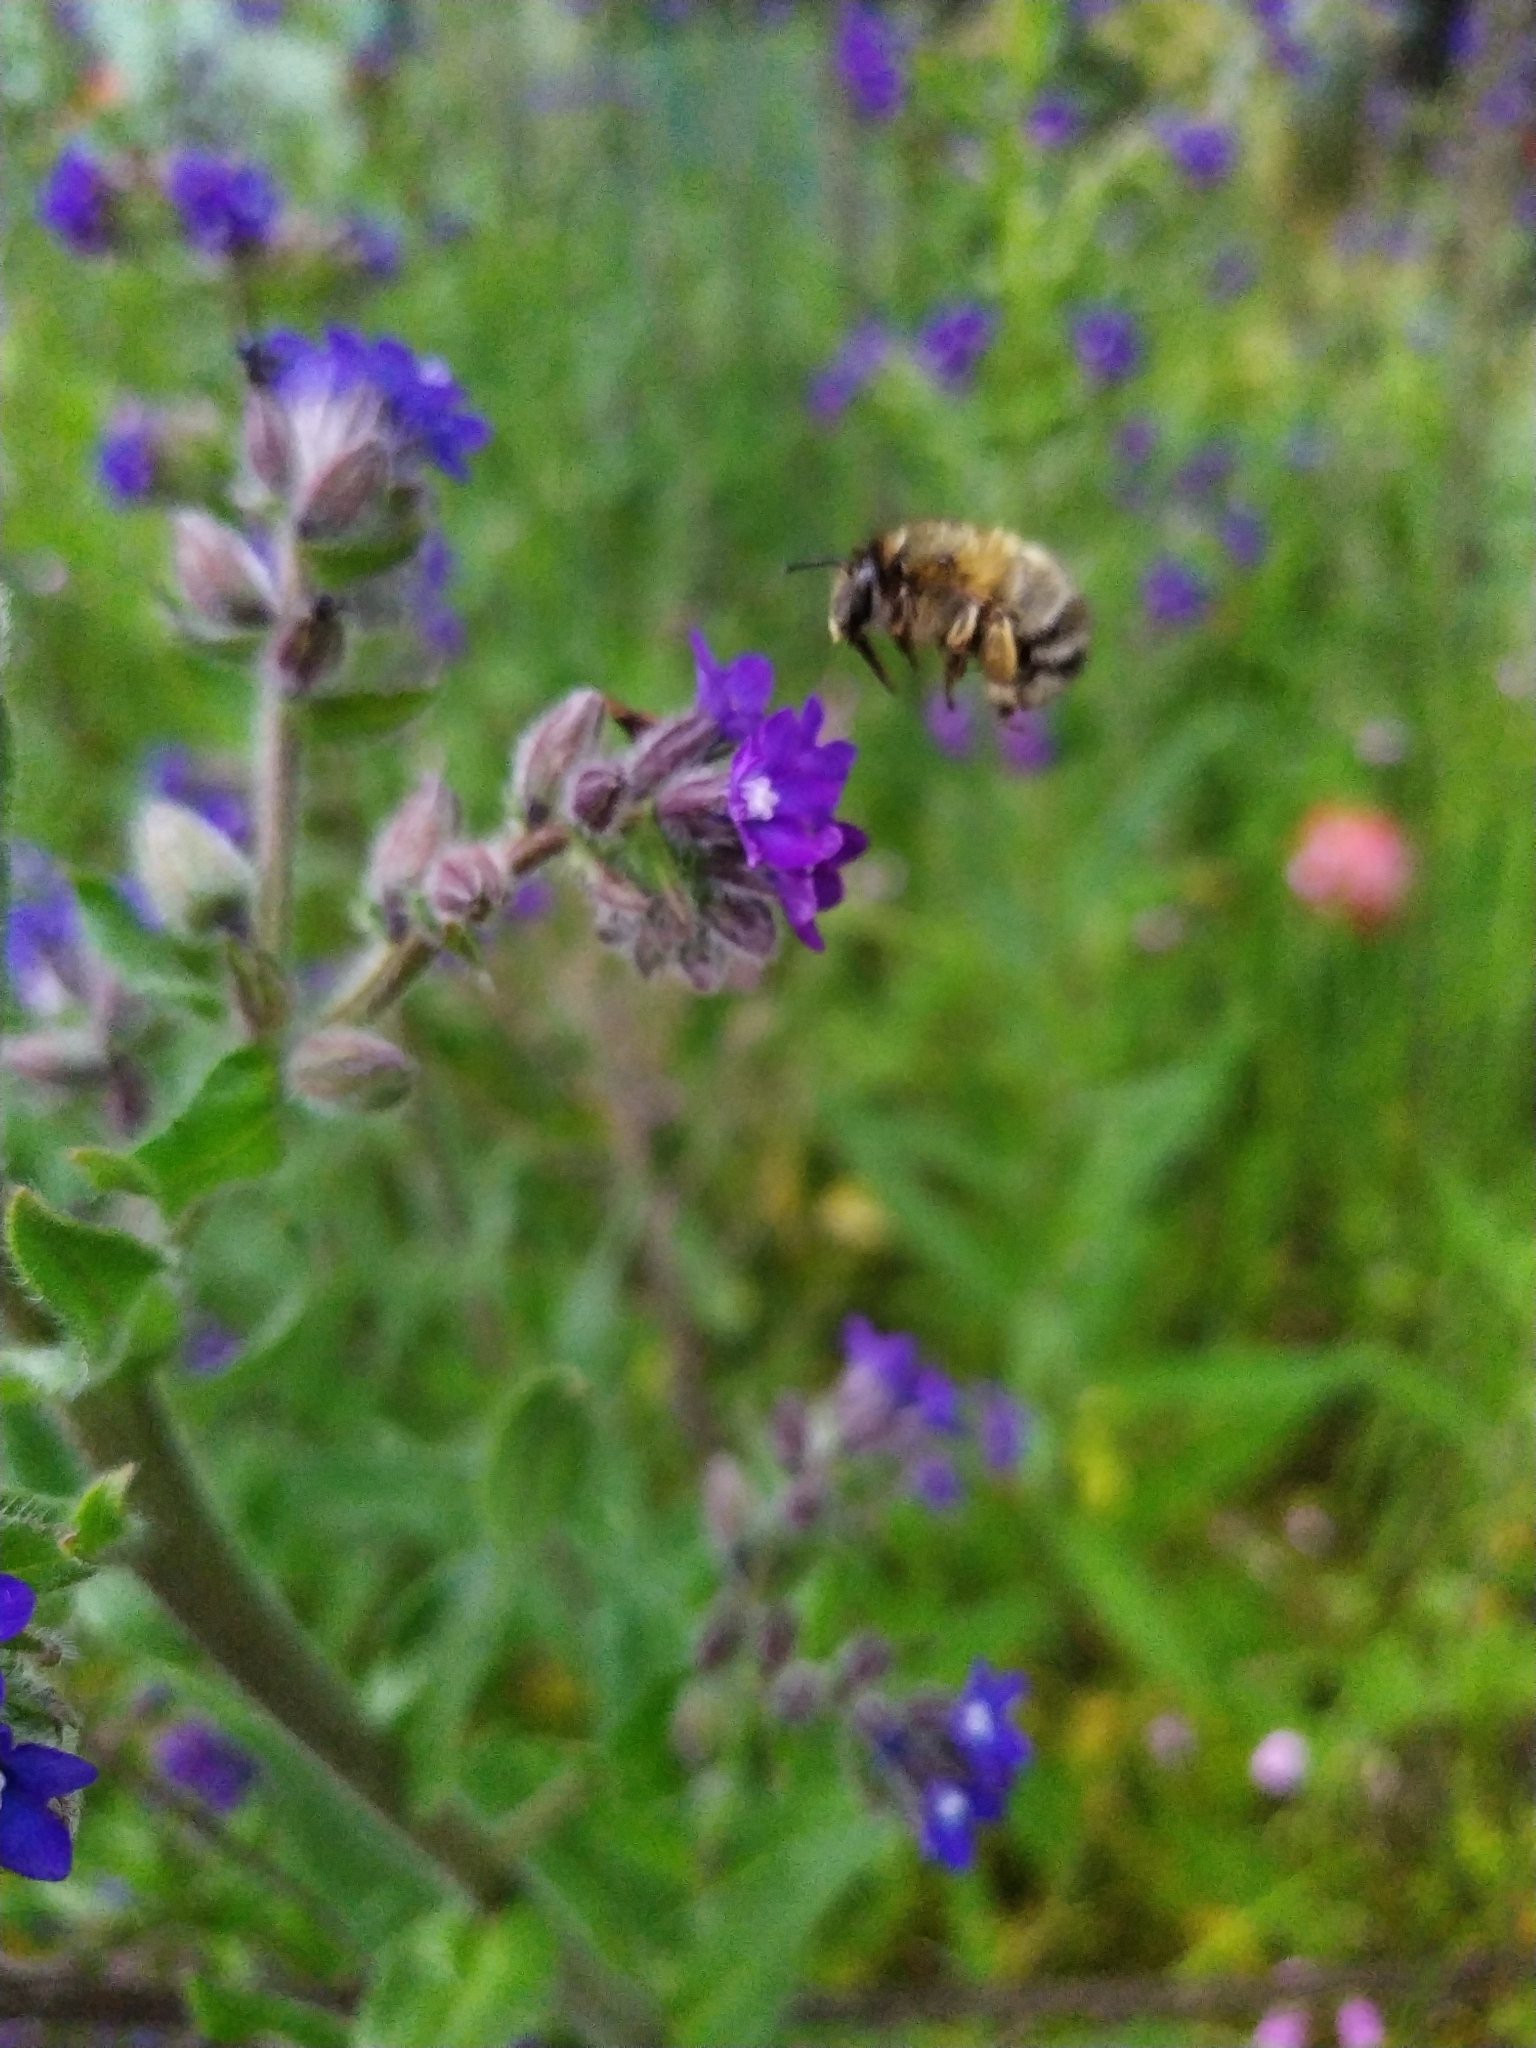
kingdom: Animalia
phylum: Arthropoda
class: Insecta
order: Hymenoptera
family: Apidae
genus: Anthophora
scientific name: Anthophora plumipes
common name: Hairy-footed flower bee
